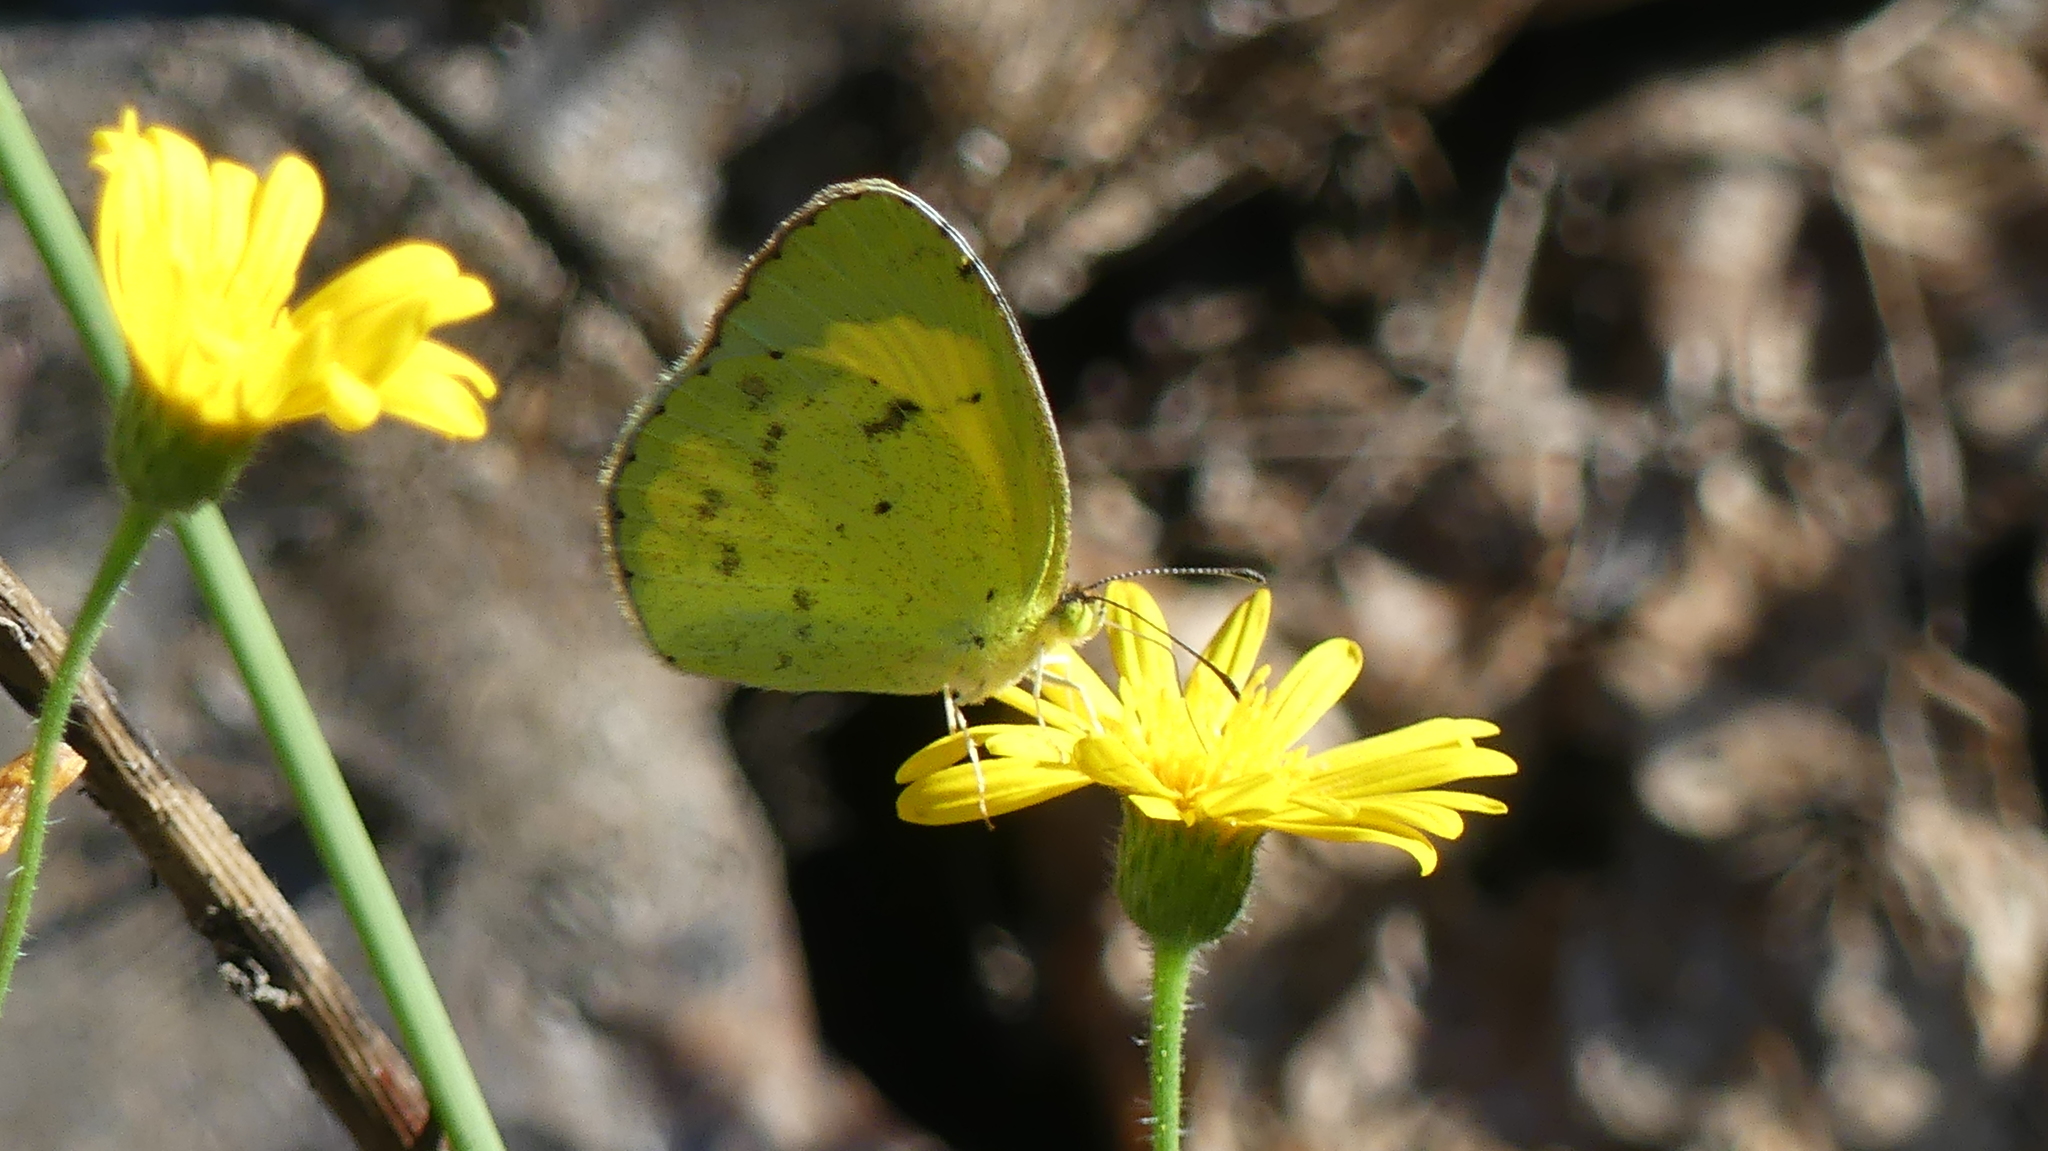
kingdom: Animalia
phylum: Arthropoda
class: Insecta
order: Lepidoptera
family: Pieridae
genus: Pyrisitia
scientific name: Pyrisitia lisa
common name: Little yellow
